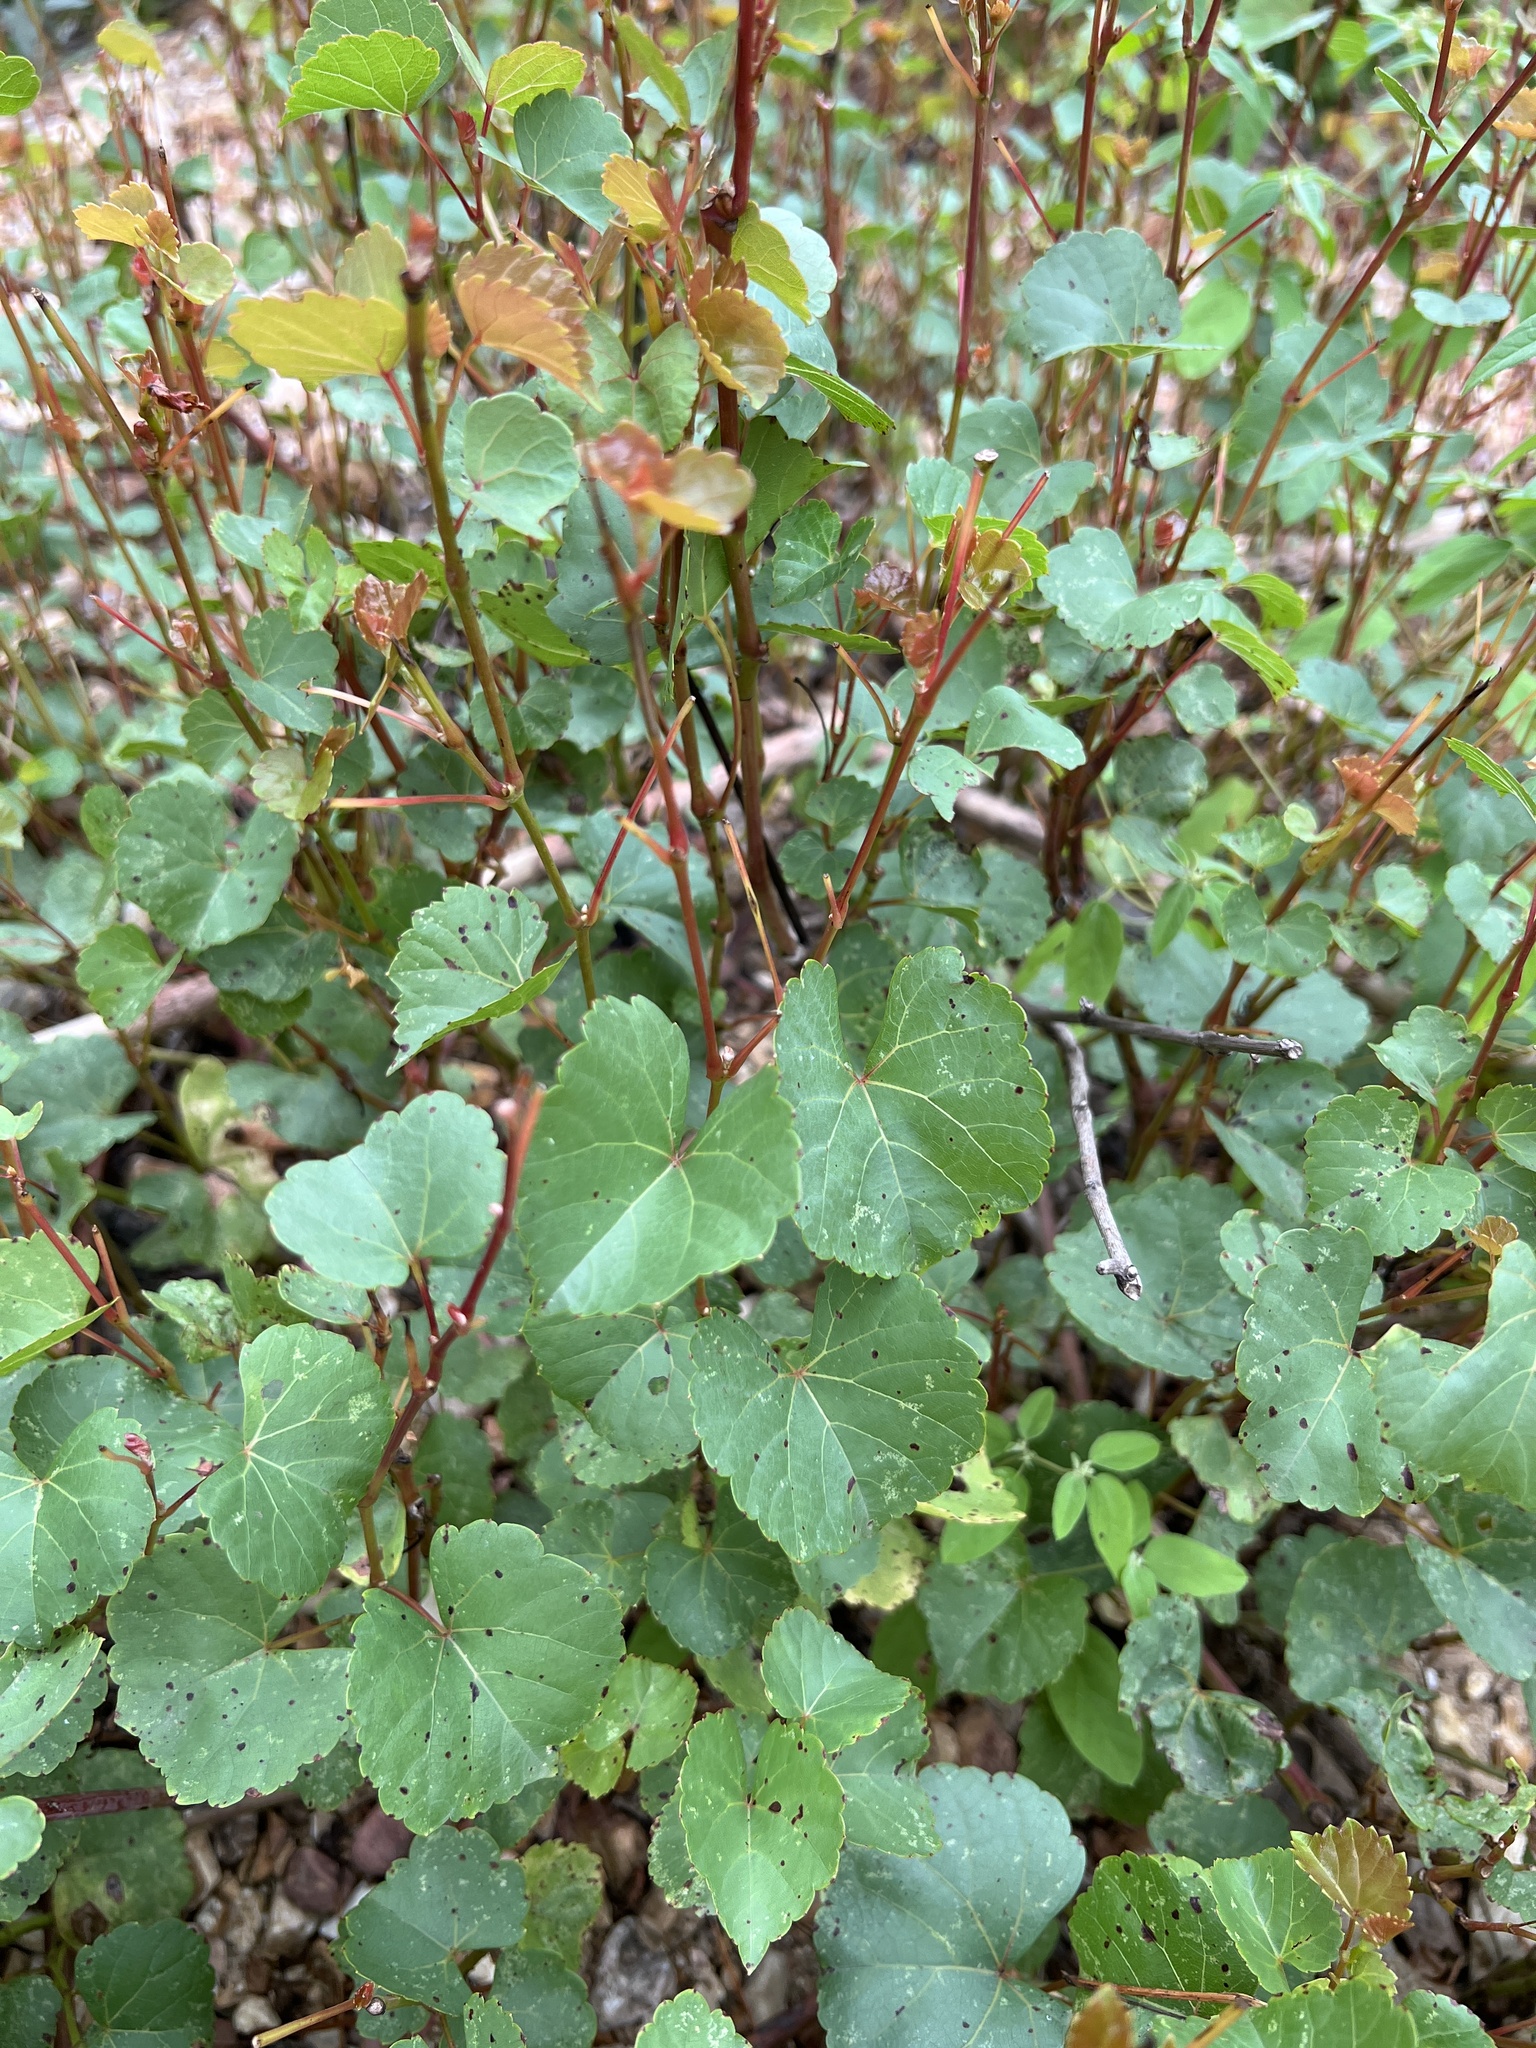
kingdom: Plantae
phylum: Tracheophyta
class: Magnoliopsida
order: Vitales
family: Vitaceae
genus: Vitis
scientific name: Vitis rupestris
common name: Rock grape
